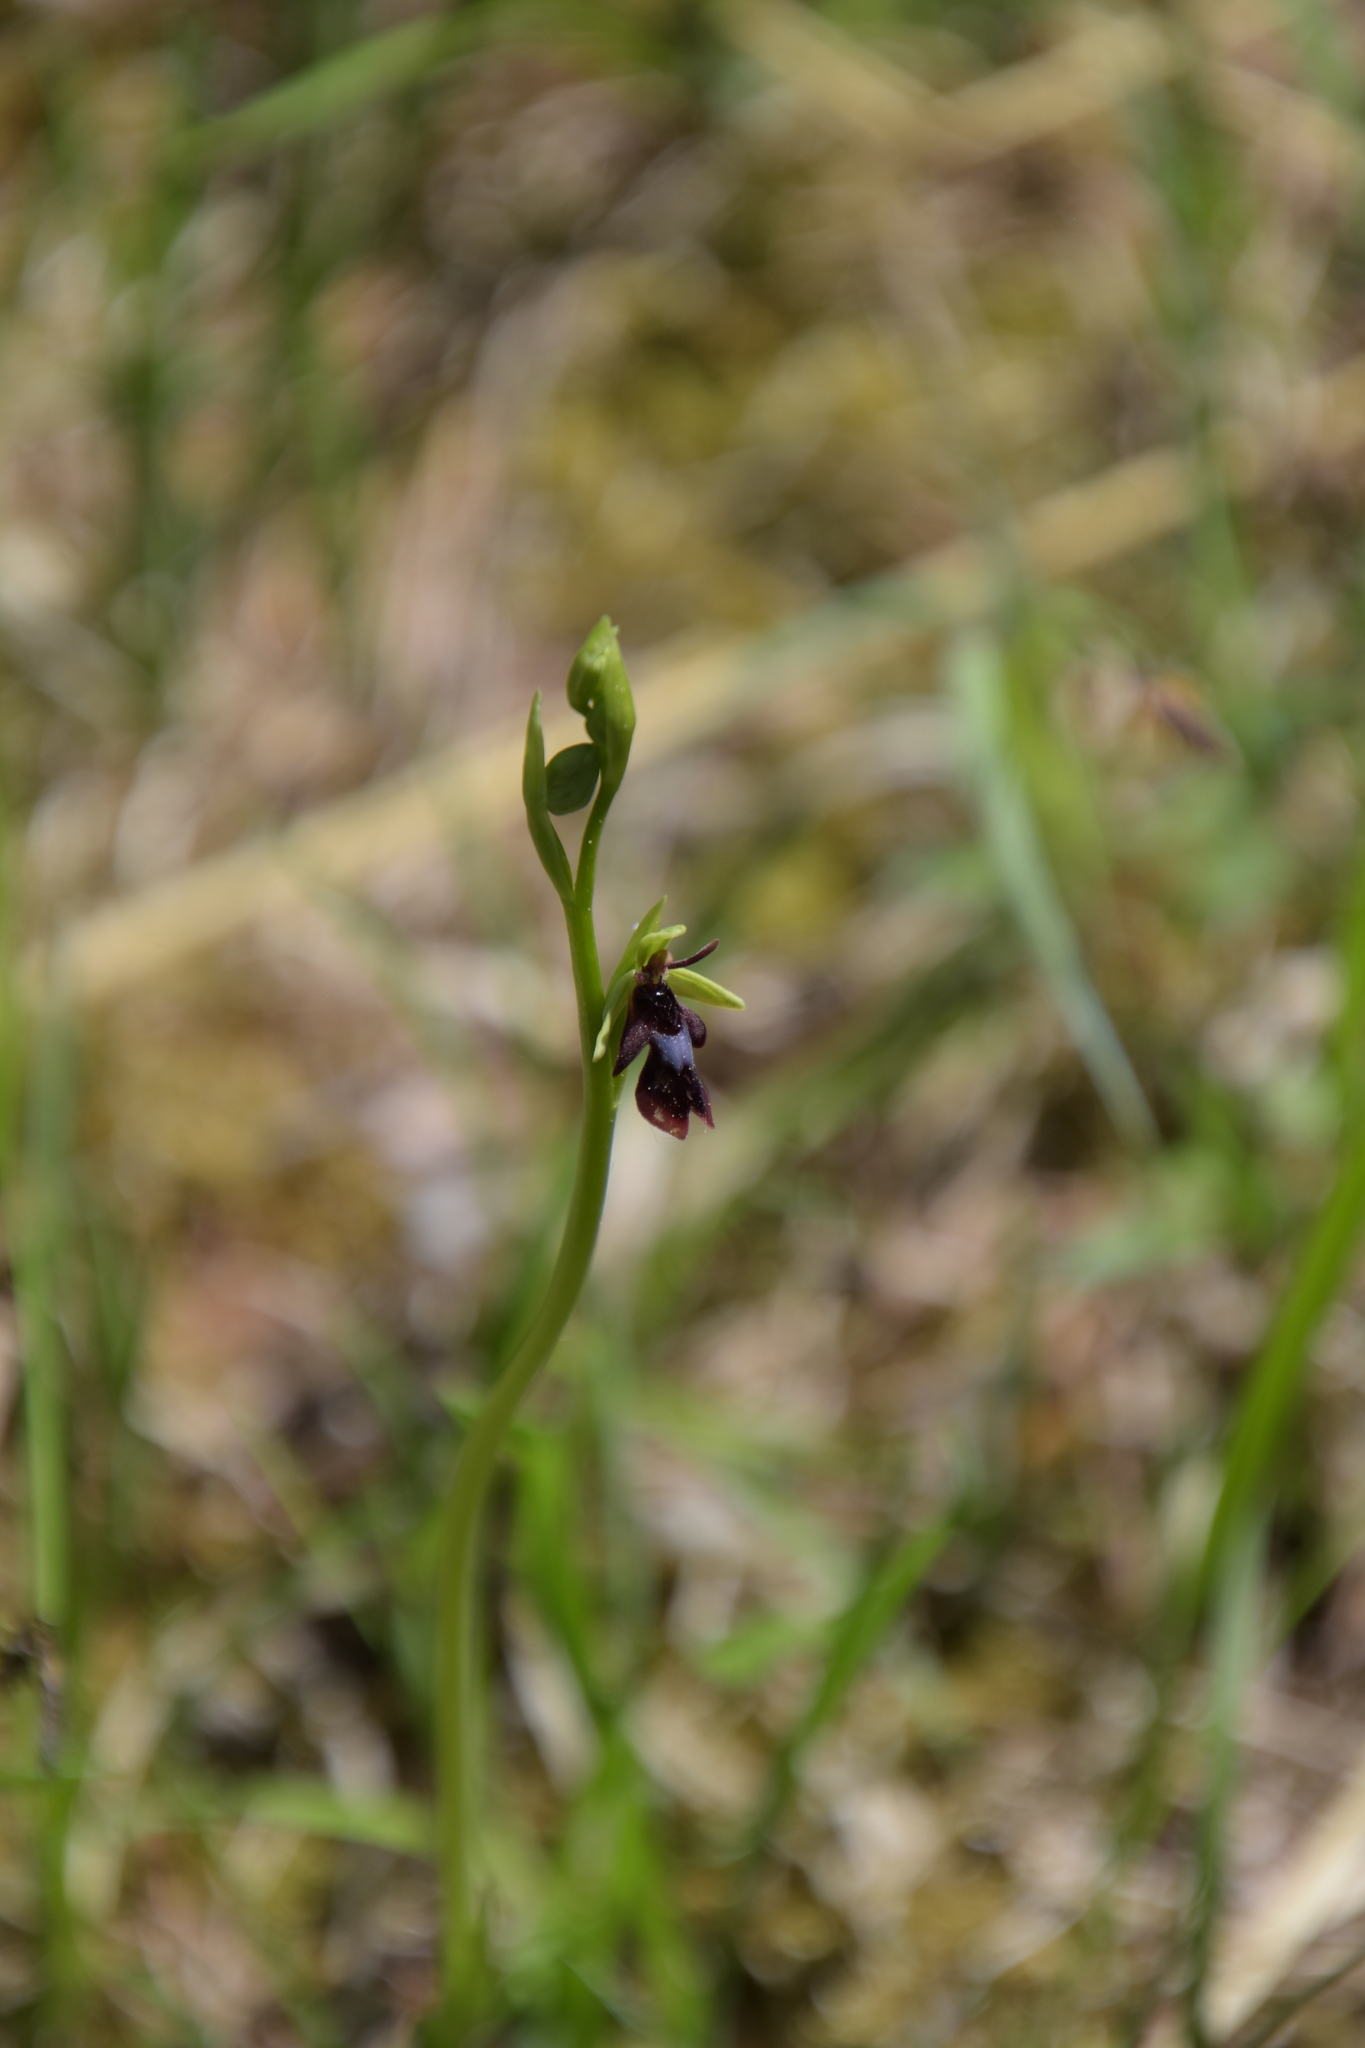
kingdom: Plantae
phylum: Tracheophyta
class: Liliopsida
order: Asparagales
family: Orchidaceae
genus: Ophrys
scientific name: Ophrys insectifera
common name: Fly orchid
